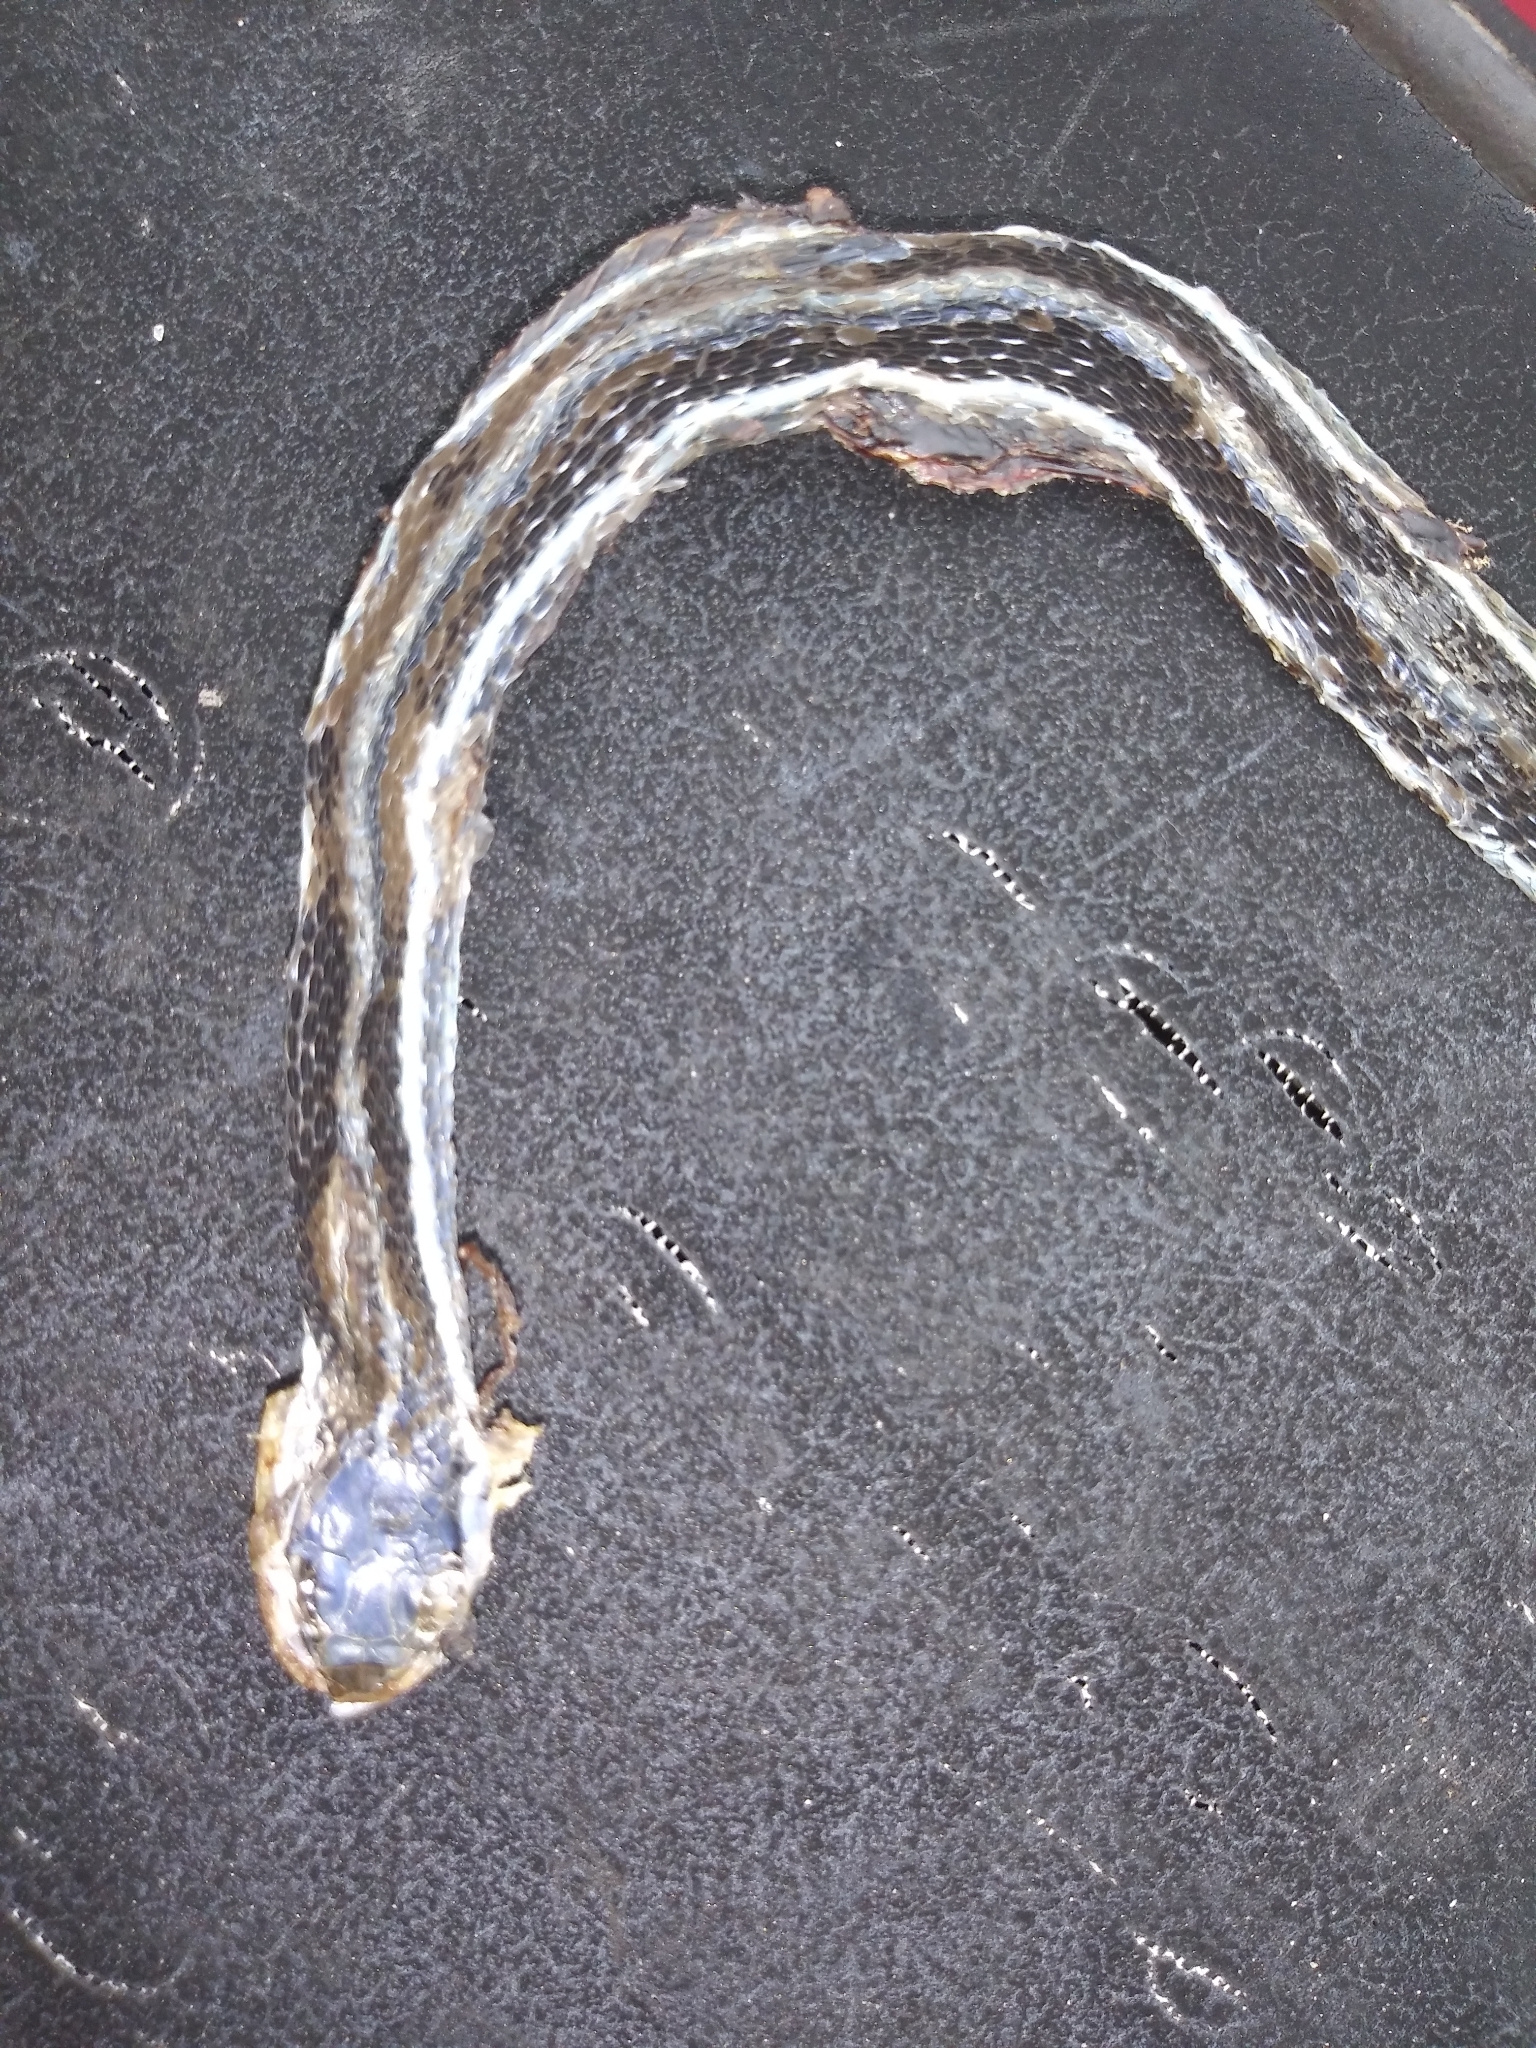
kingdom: Animalia
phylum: Chordata
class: Squamata
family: Colubridae
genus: Thamnophis
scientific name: Thamnophis saurita
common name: Eastern ribbonsnake
